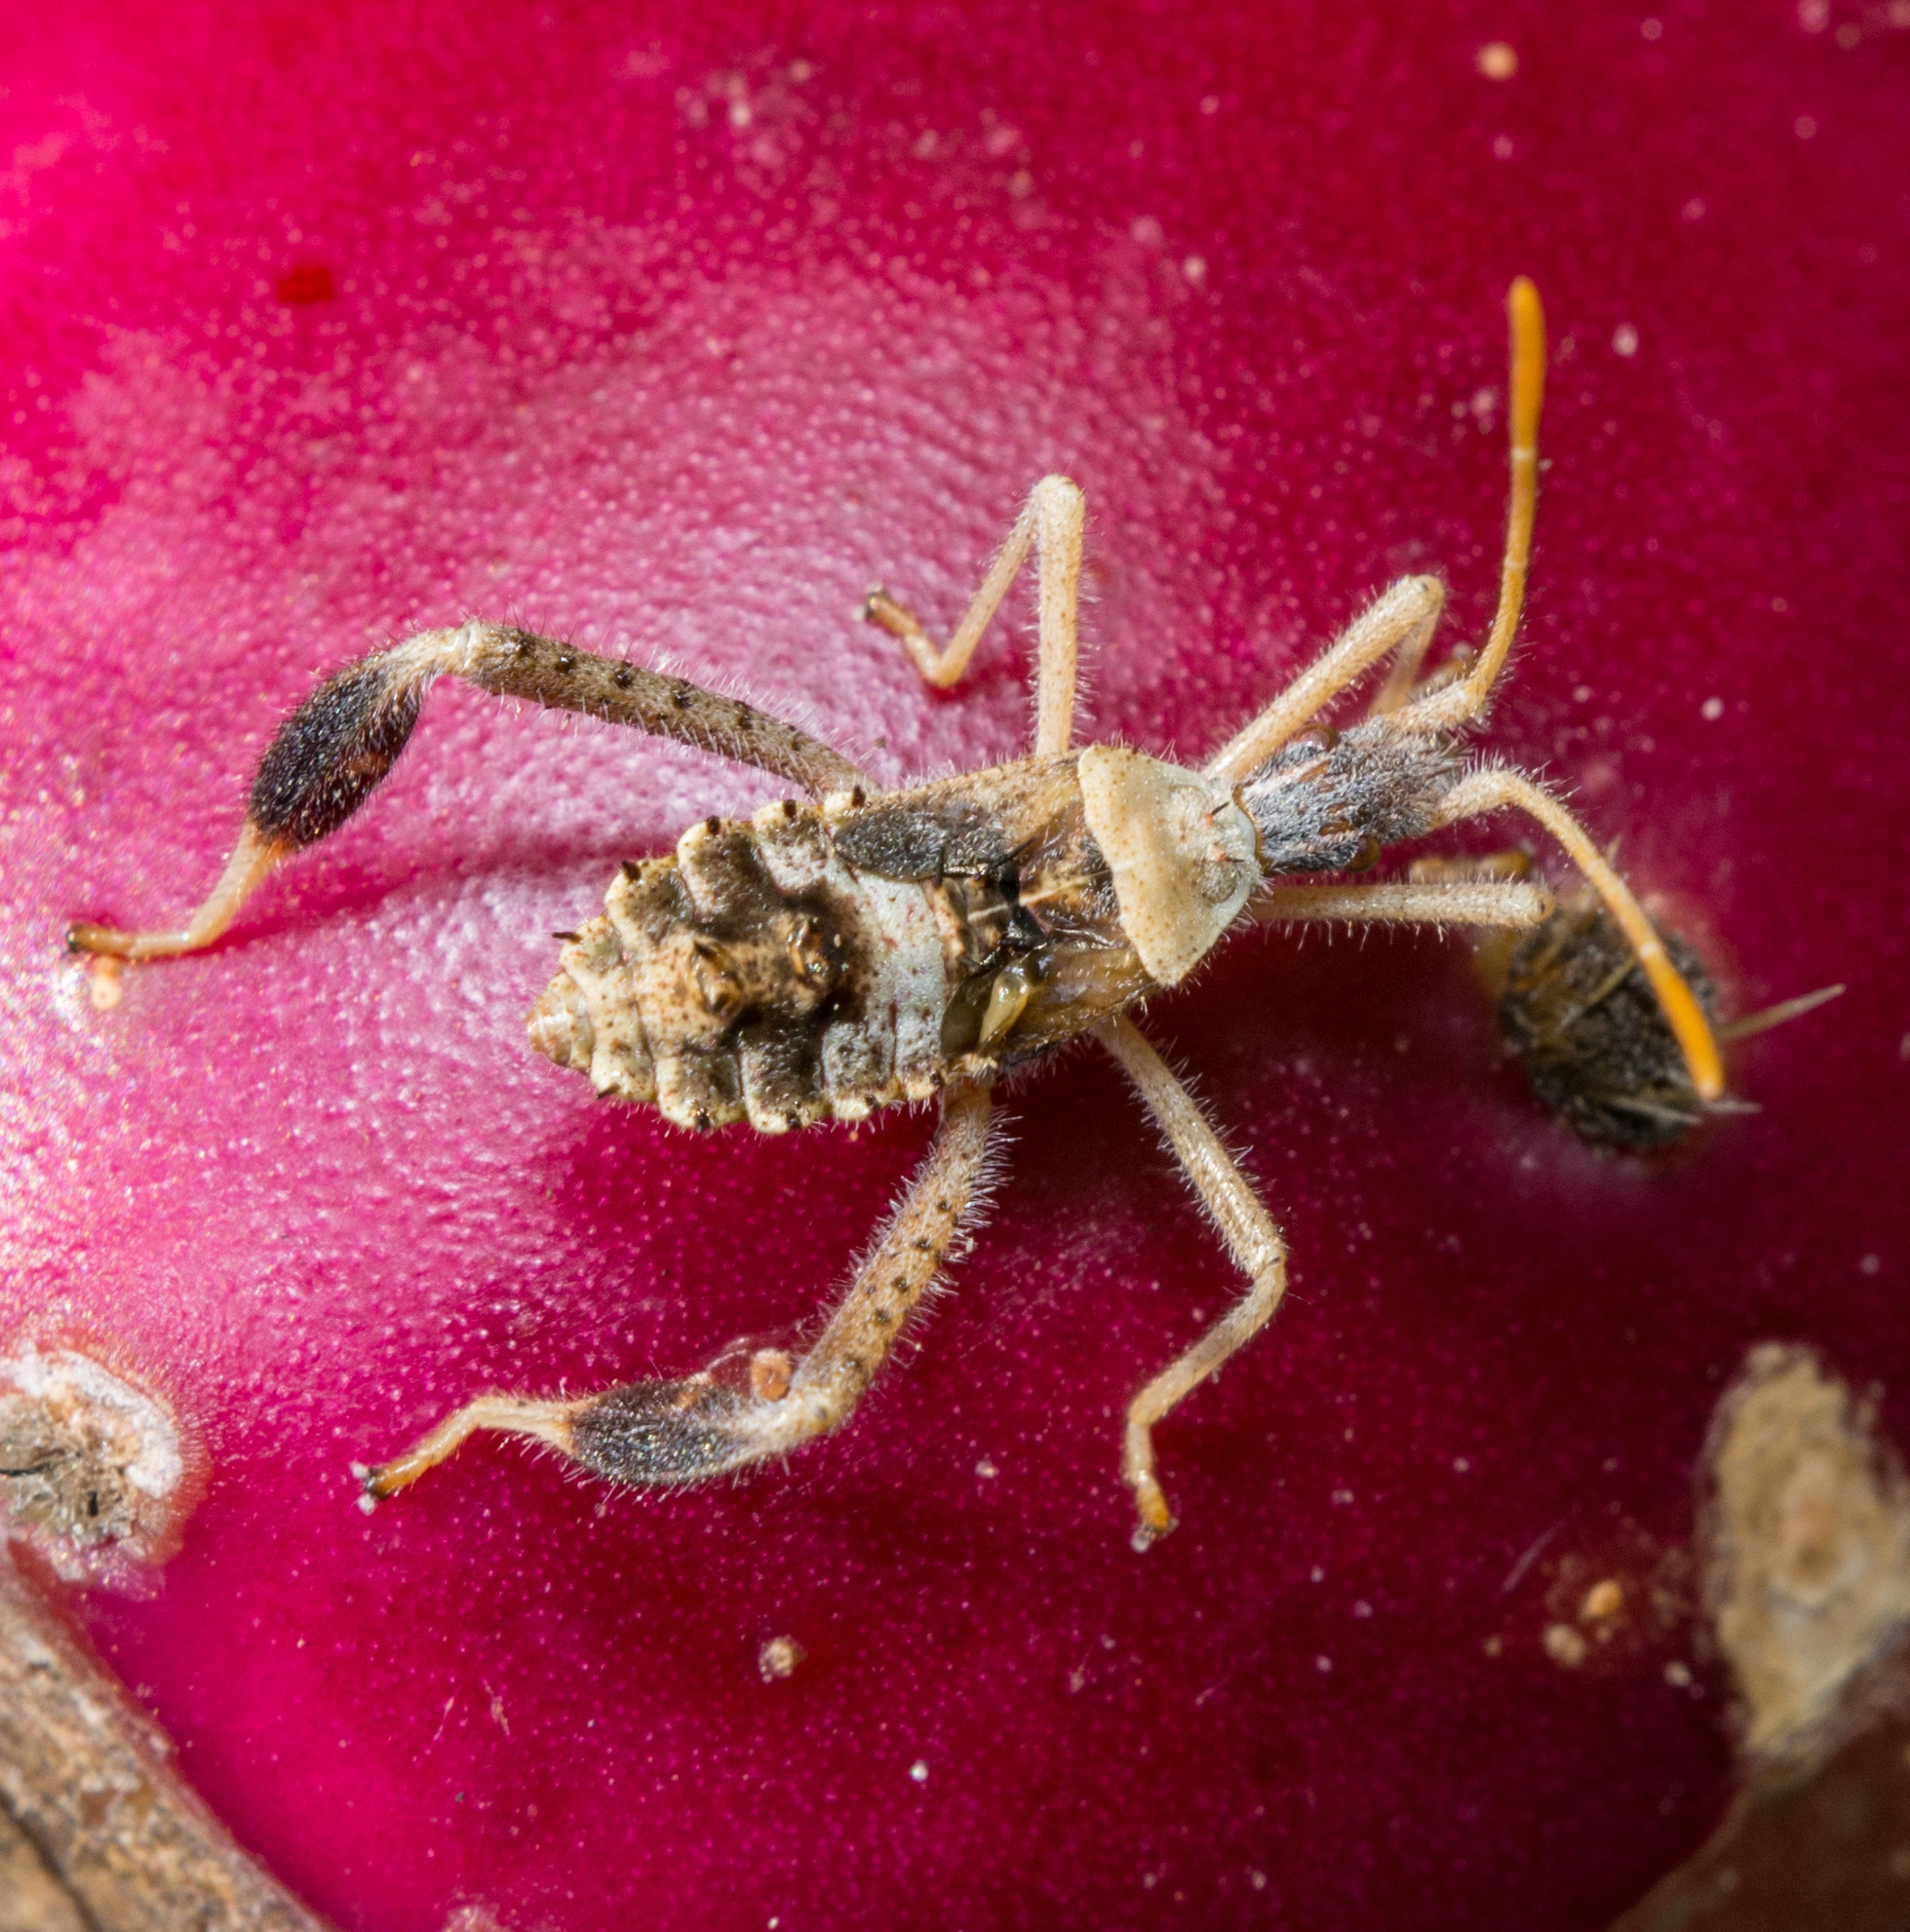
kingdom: Animalia
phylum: Arthropoda
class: Insecta
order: Hemiptera
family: Coreidae
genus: Narnia
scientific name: Narnia femorata
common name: Leaf-footed cactus bug
